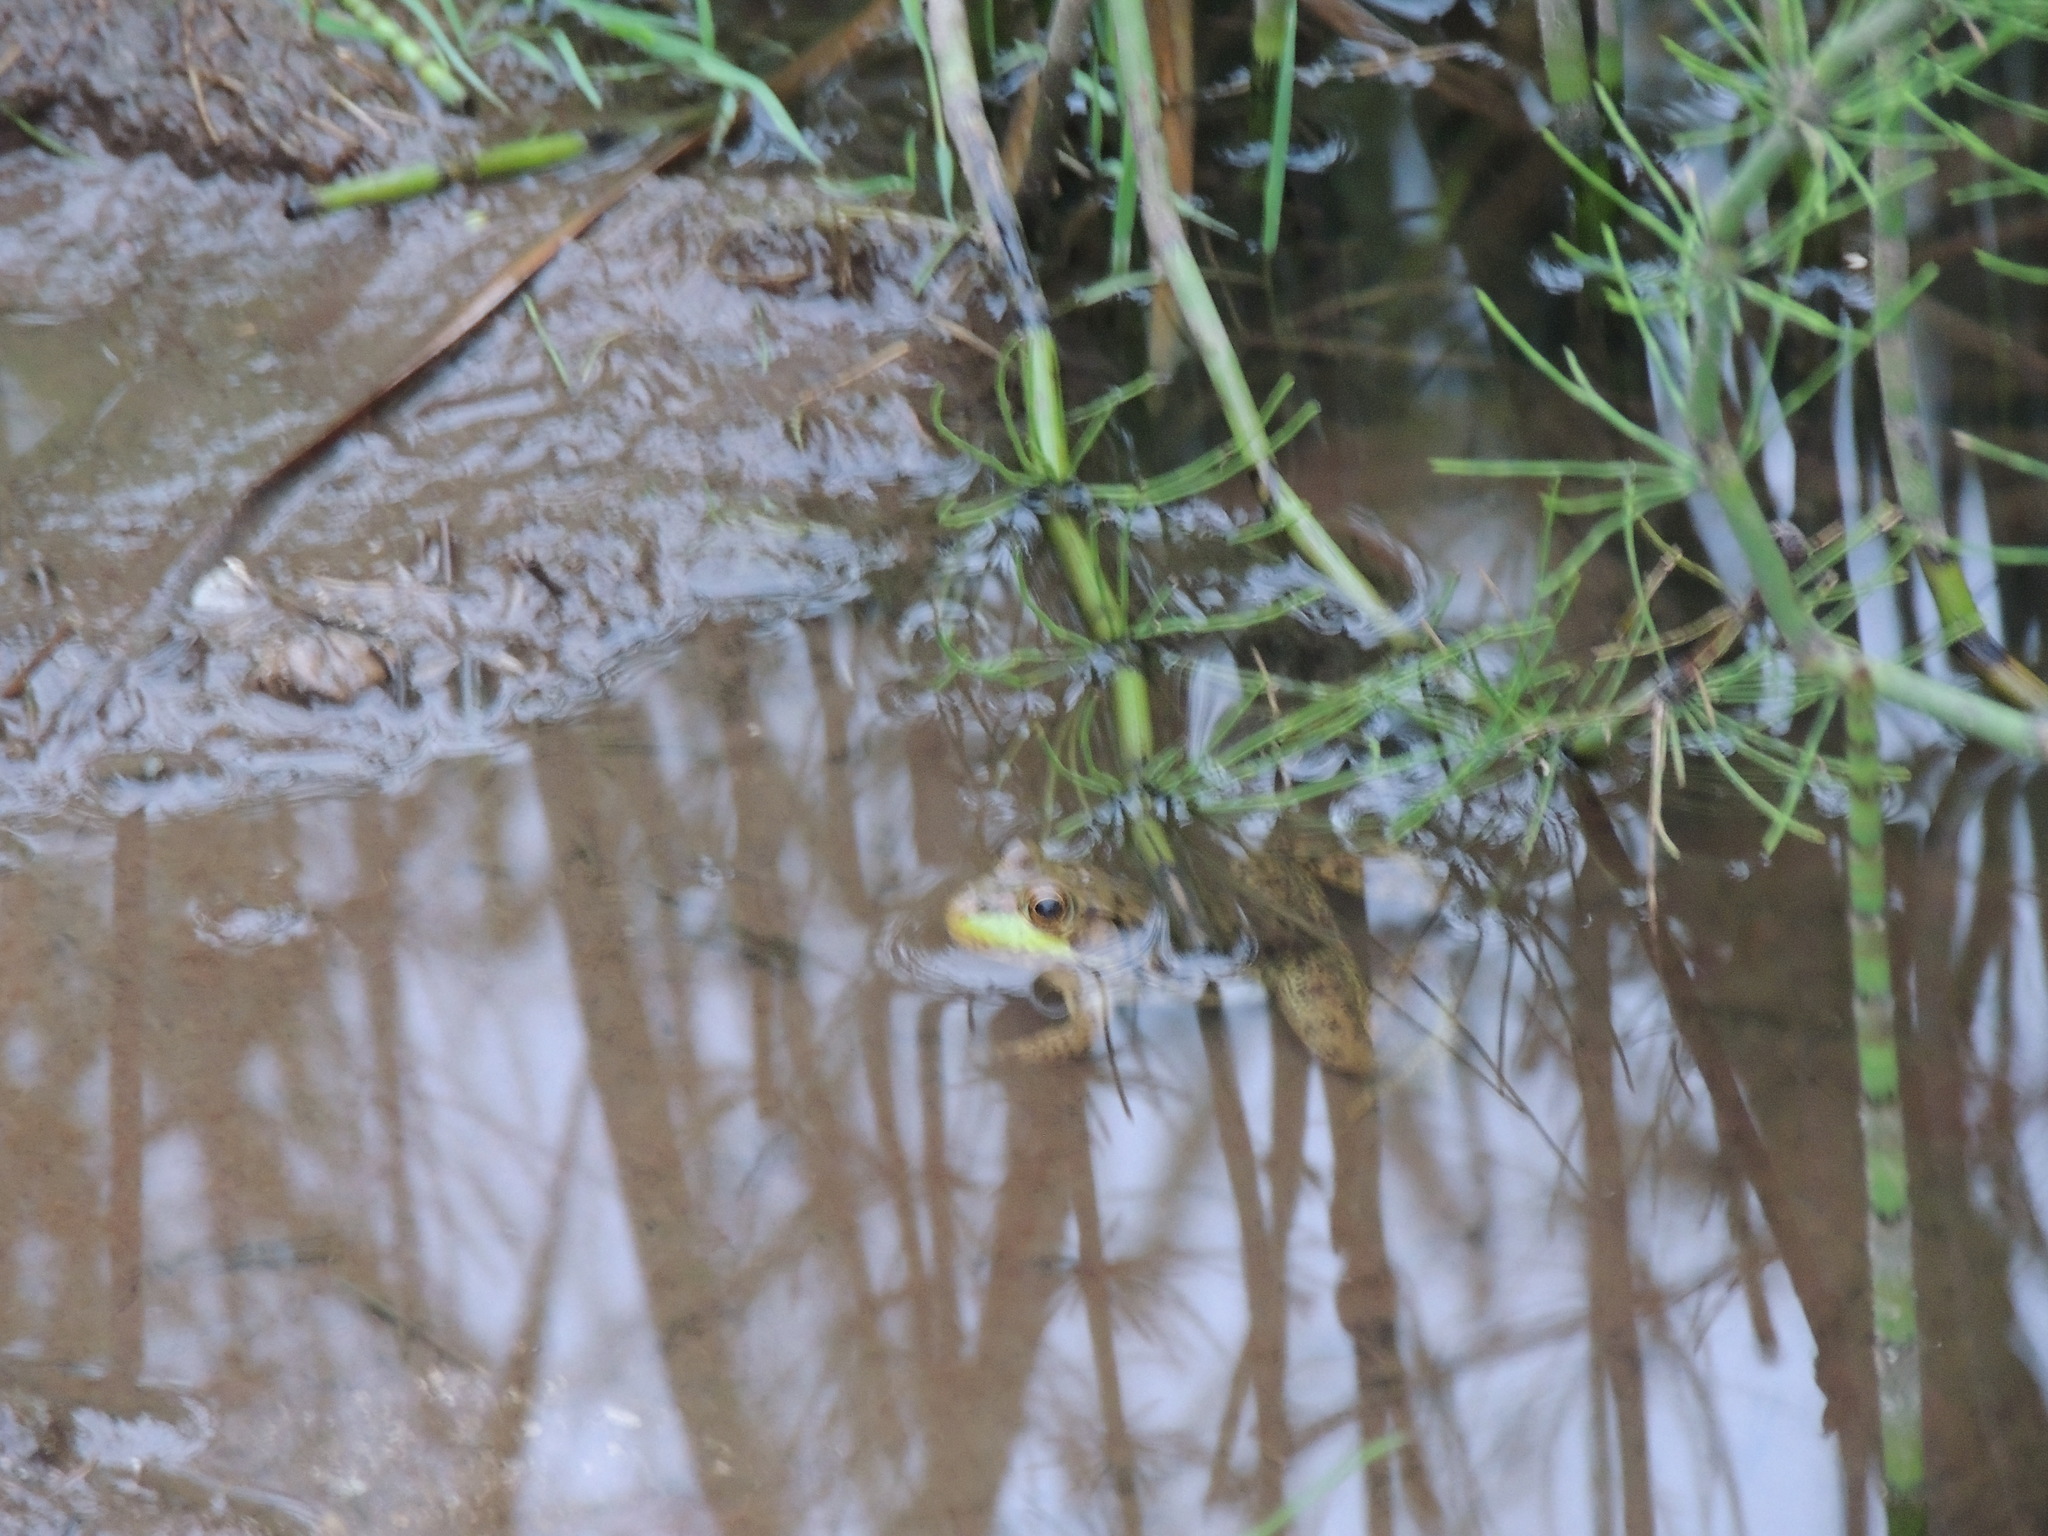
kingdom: Animalia
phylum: Chordata
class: Amphibia
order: Anura
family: Ranidae
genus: Lithobates
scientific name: Lithobates clamitans
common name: Green frog
